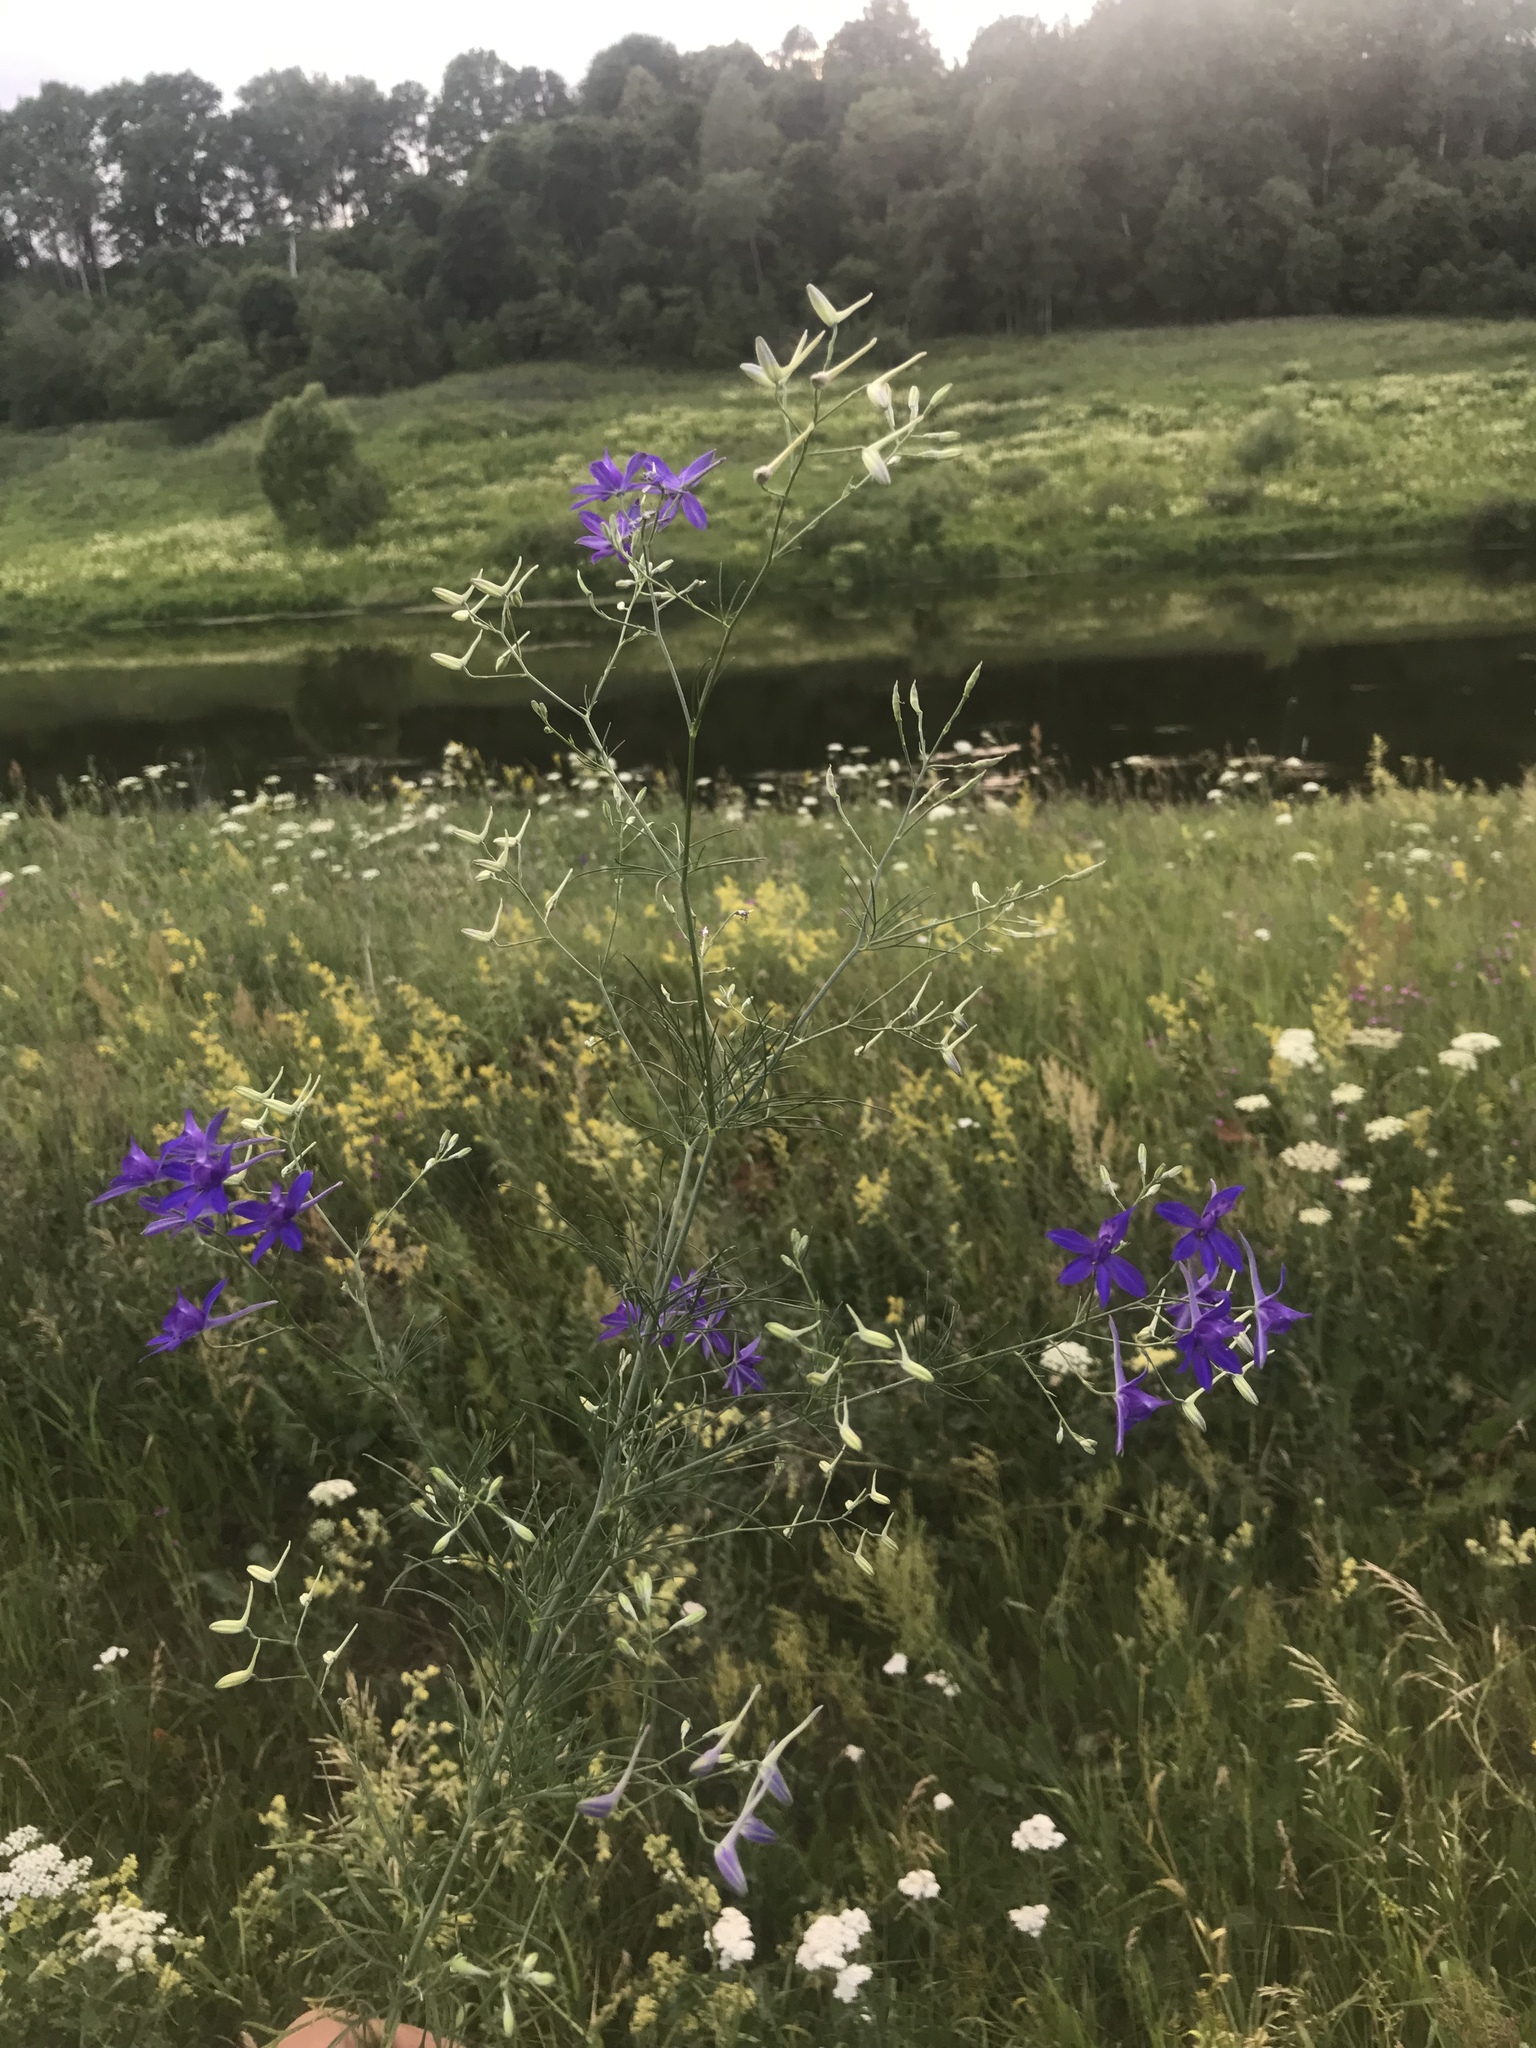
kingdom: Plantae
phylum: Tracheophyta
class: Magnoliopsida
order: Ranunculales
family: Ranunculaceae
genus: Delphinium
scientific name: Delphinium consolida
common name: Branching larkspur
